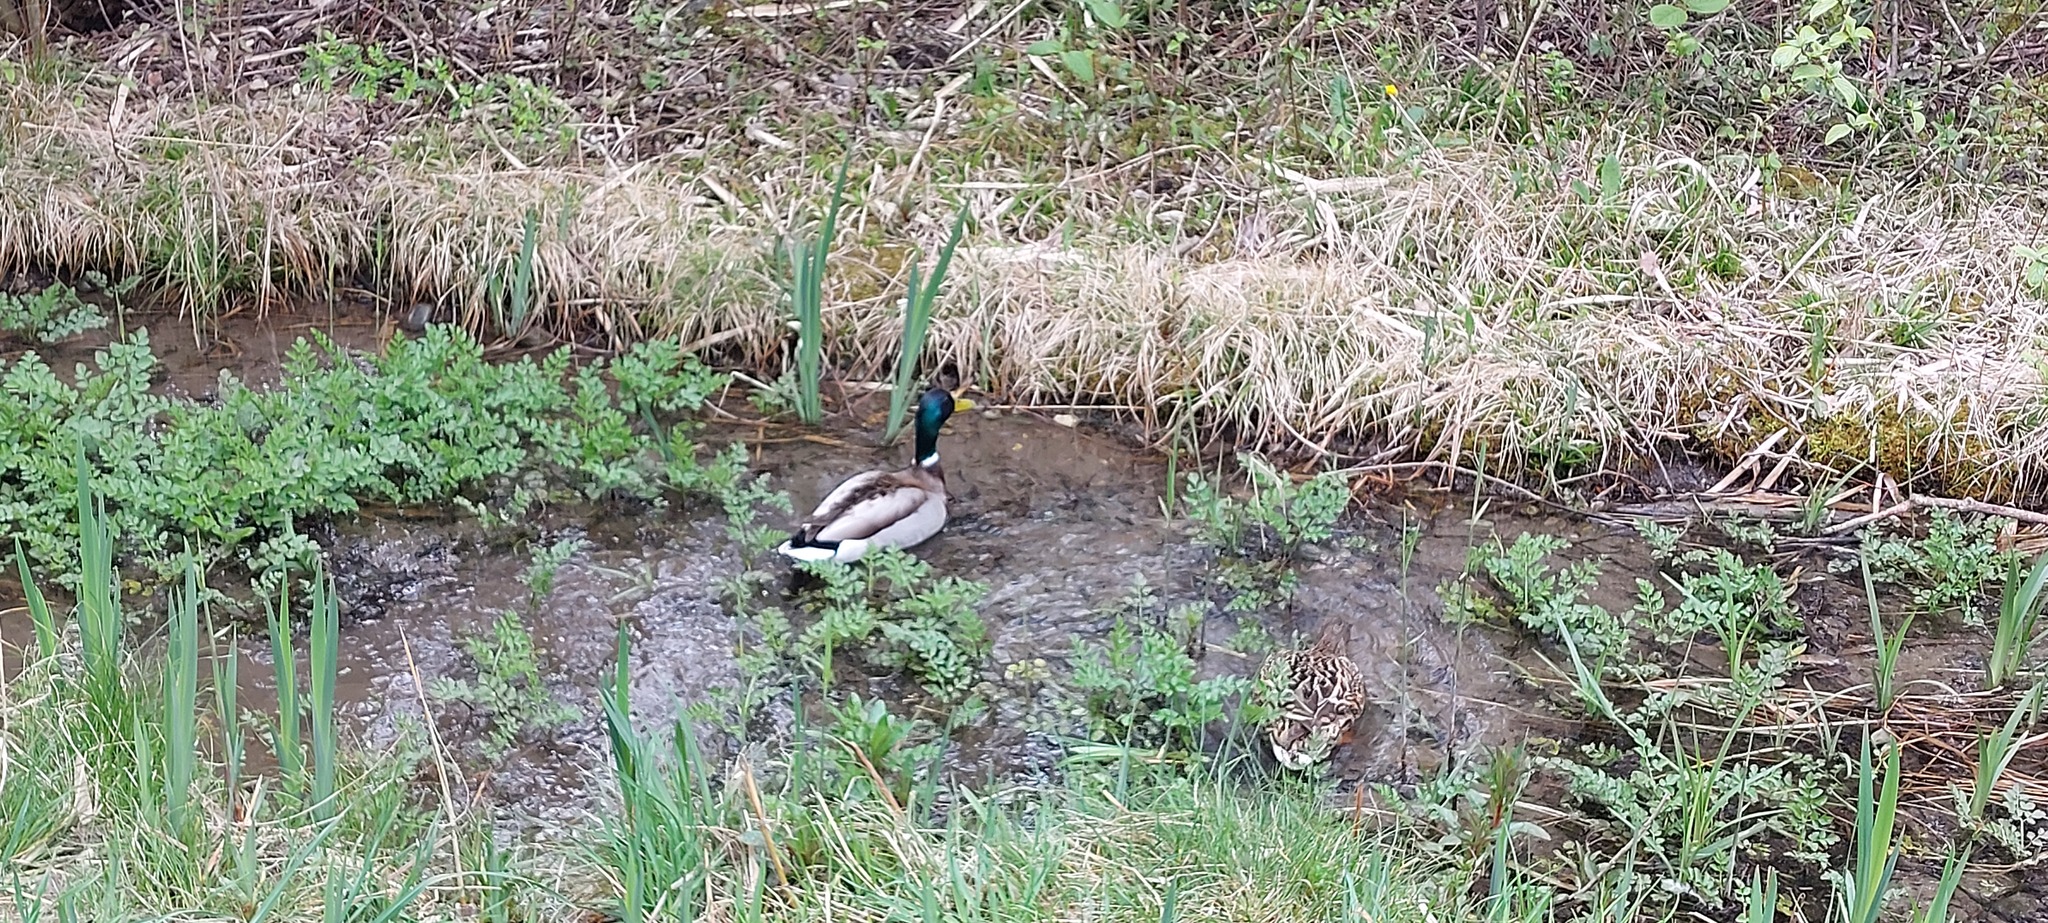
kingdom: Animalia
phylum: Chordata
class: Aves
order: Anseriformes
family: Anatidae
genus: Anas
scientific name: Anas platyrhynchos
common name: Mallard
